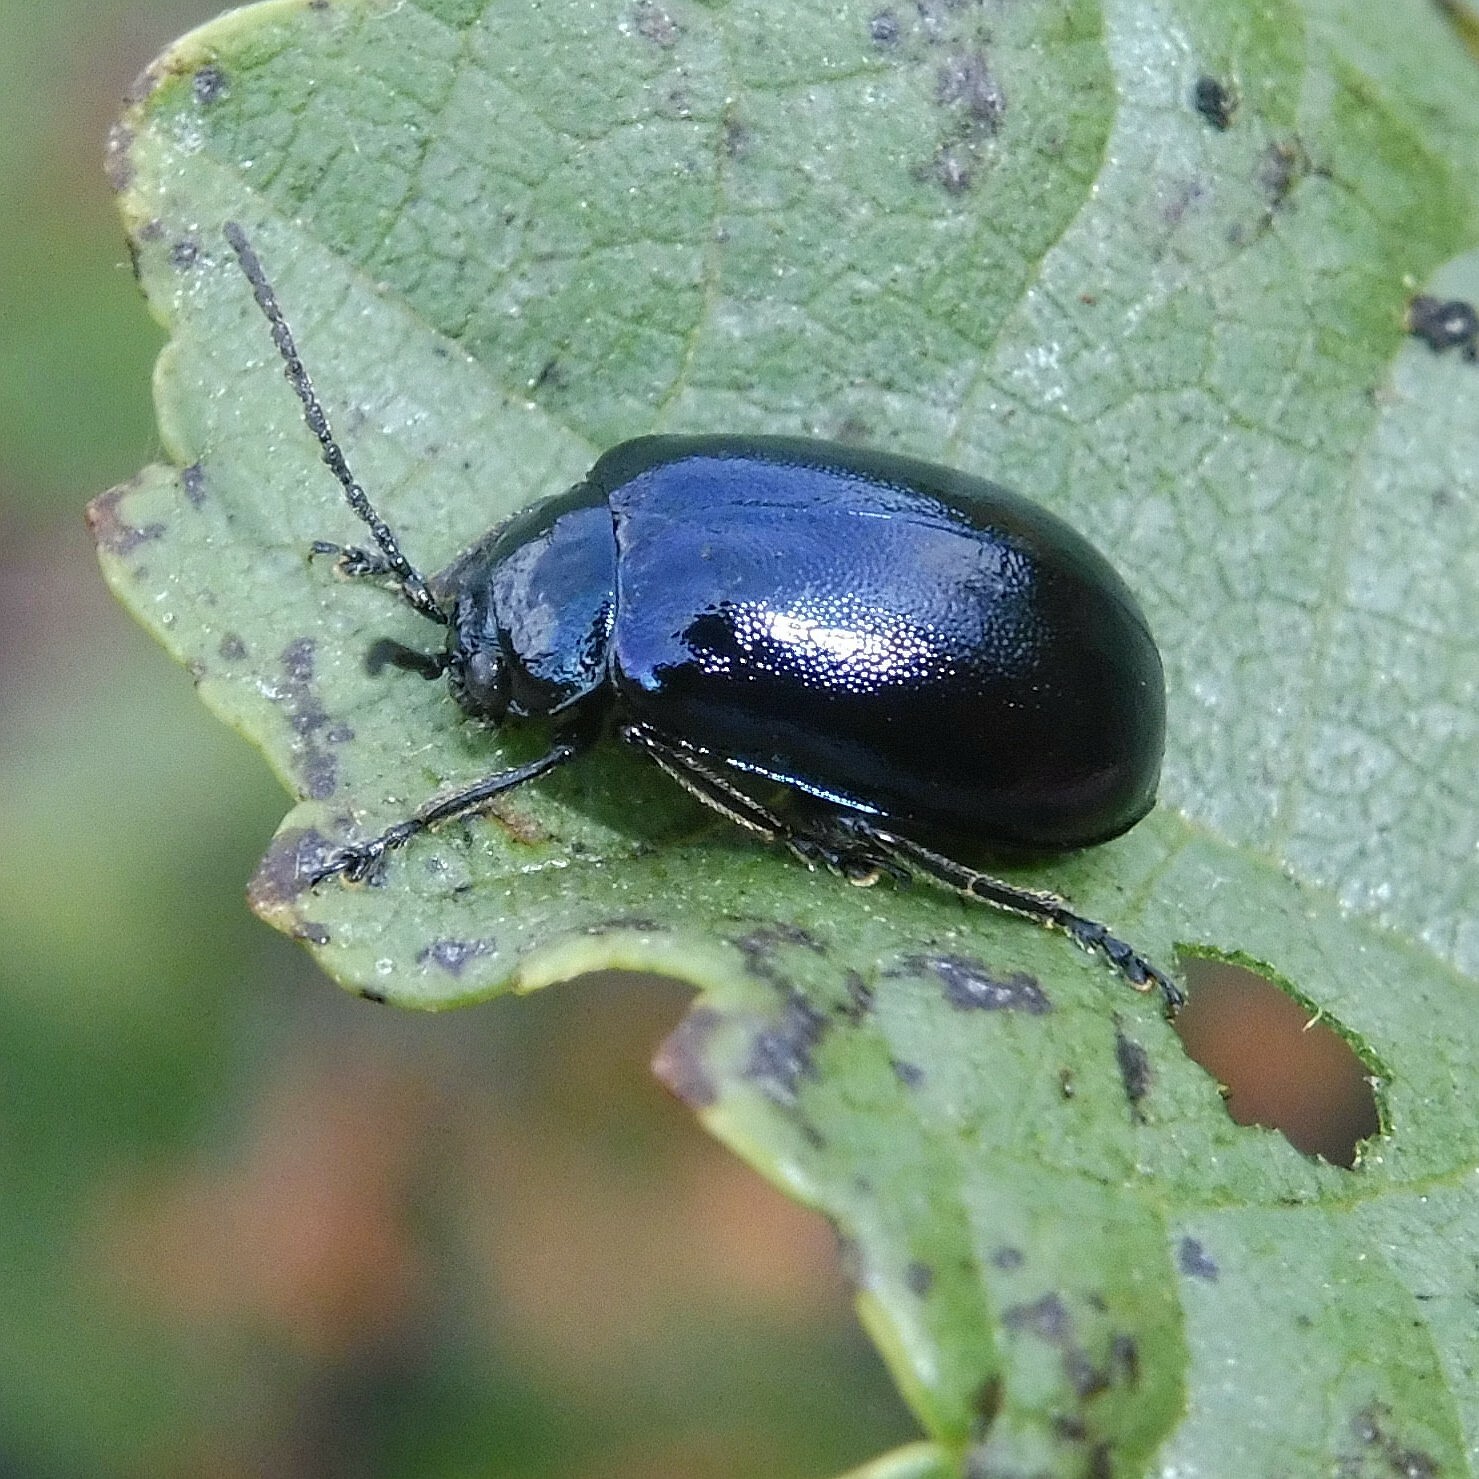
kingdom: Animalia
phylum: Arthropoda
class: Insecta
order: Coleoptera
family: Chrysomelidae
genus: Agelastica
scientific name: Agelastica alni
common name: Alder leaf beetle
